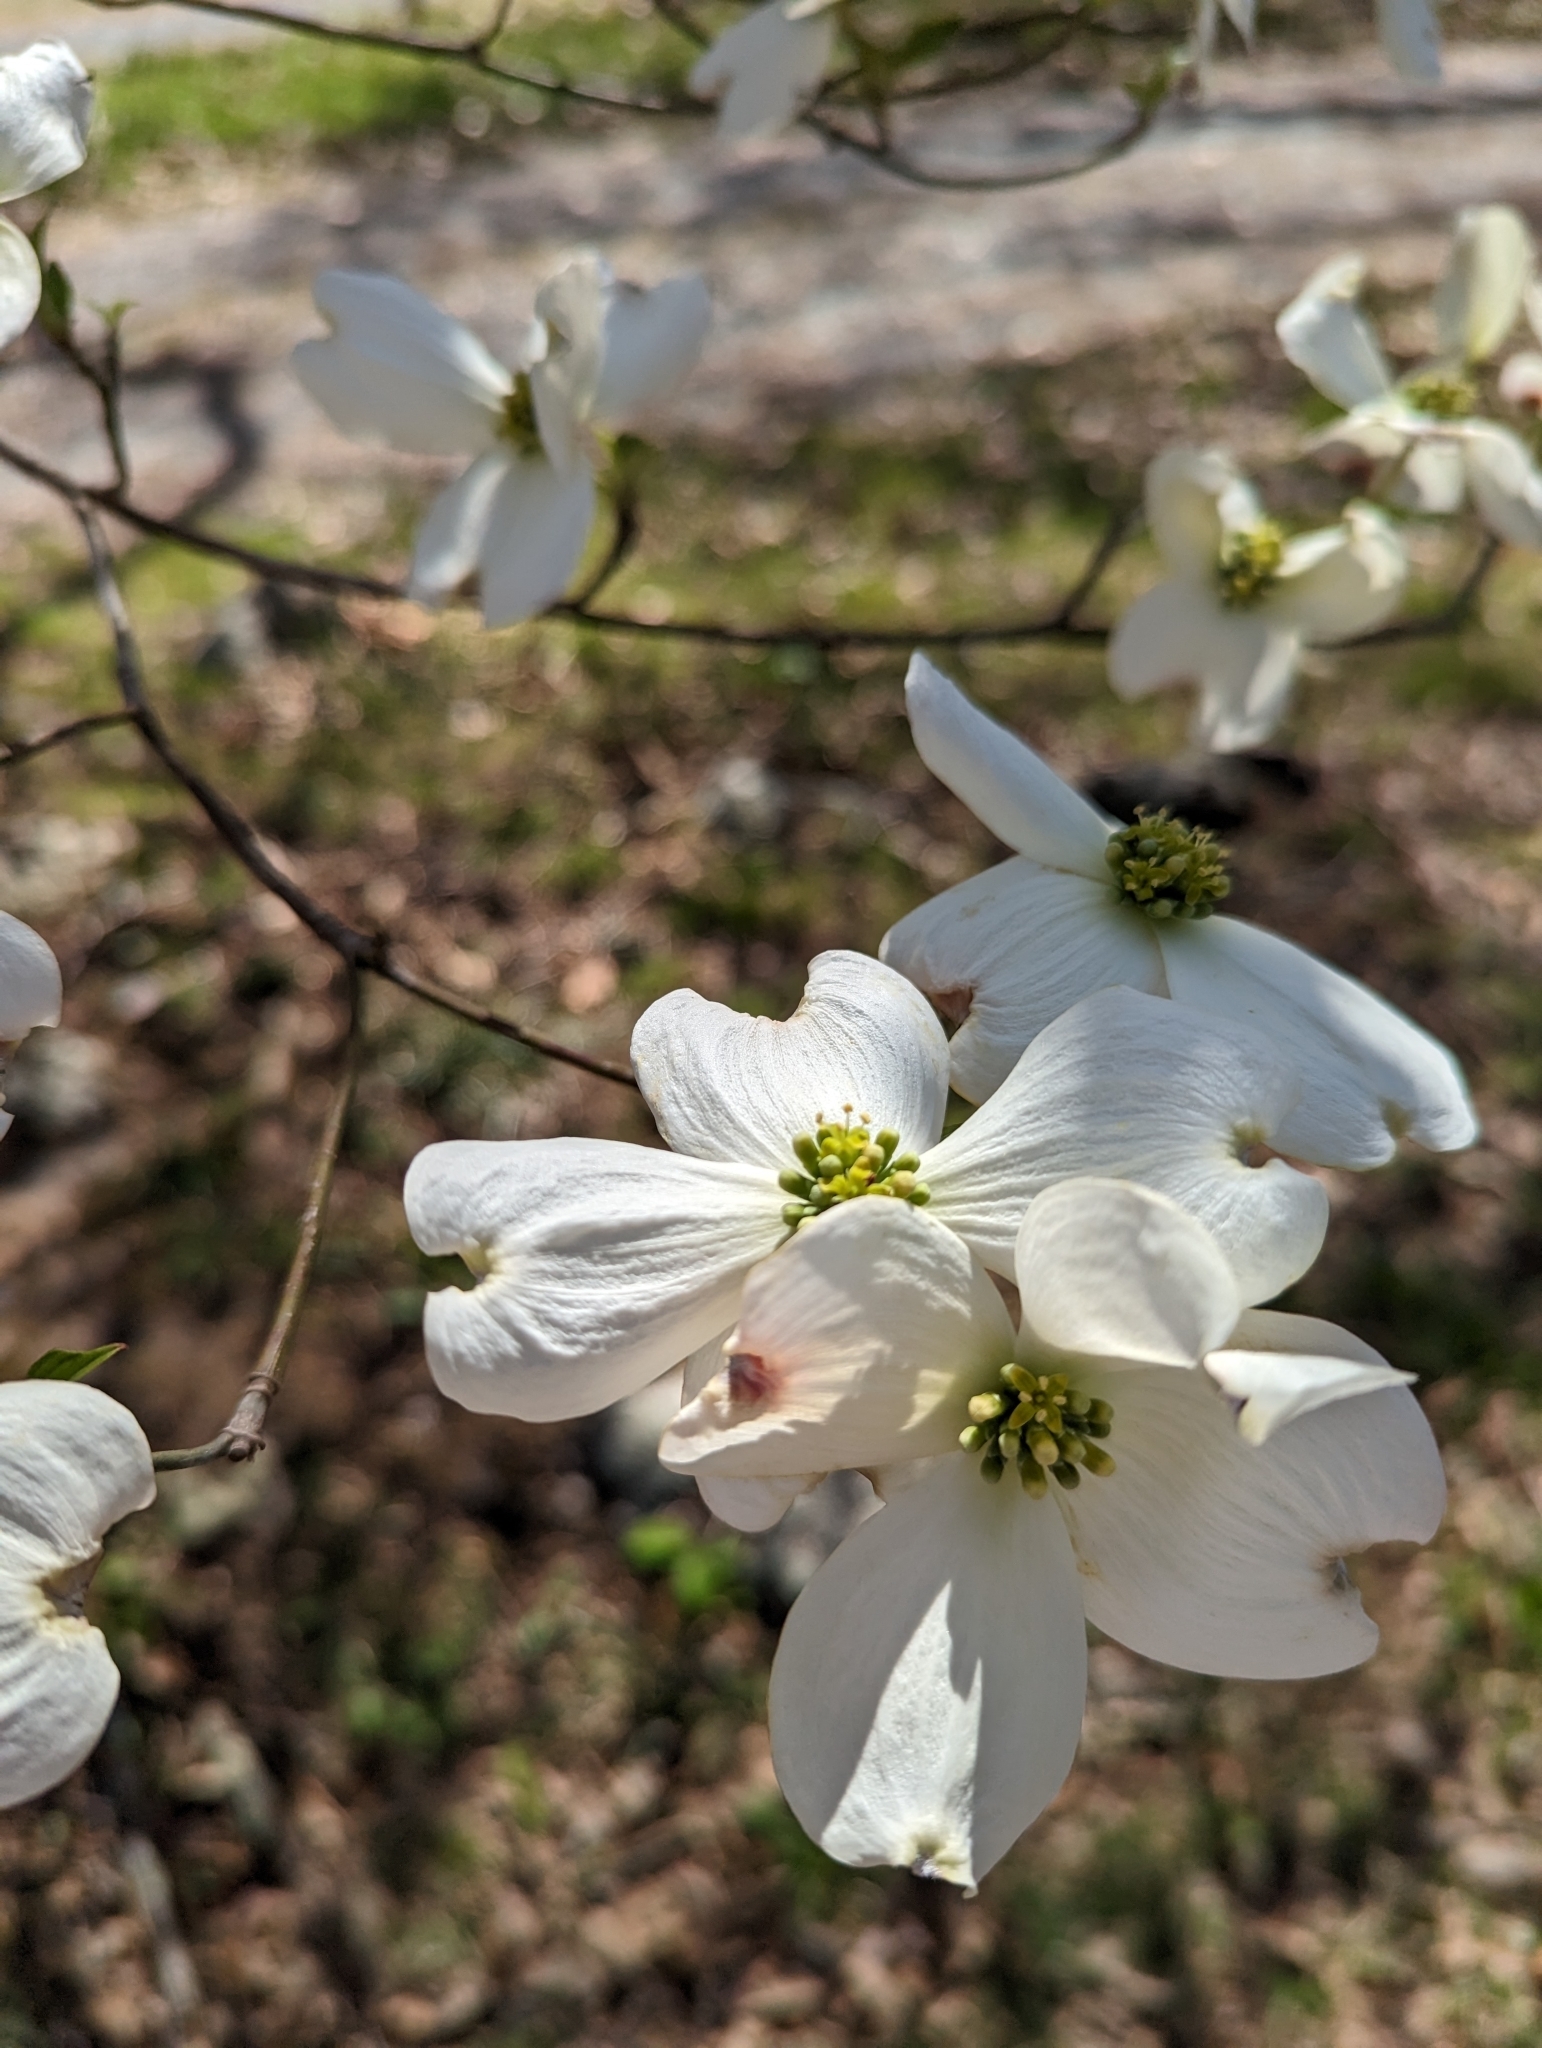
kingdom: Plantae
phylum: Tracheophyta
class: Magnoliopsida
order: Cornales
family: Cornaceae
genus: Cornus
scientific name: Cornus florida
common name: Flowering dogwood
